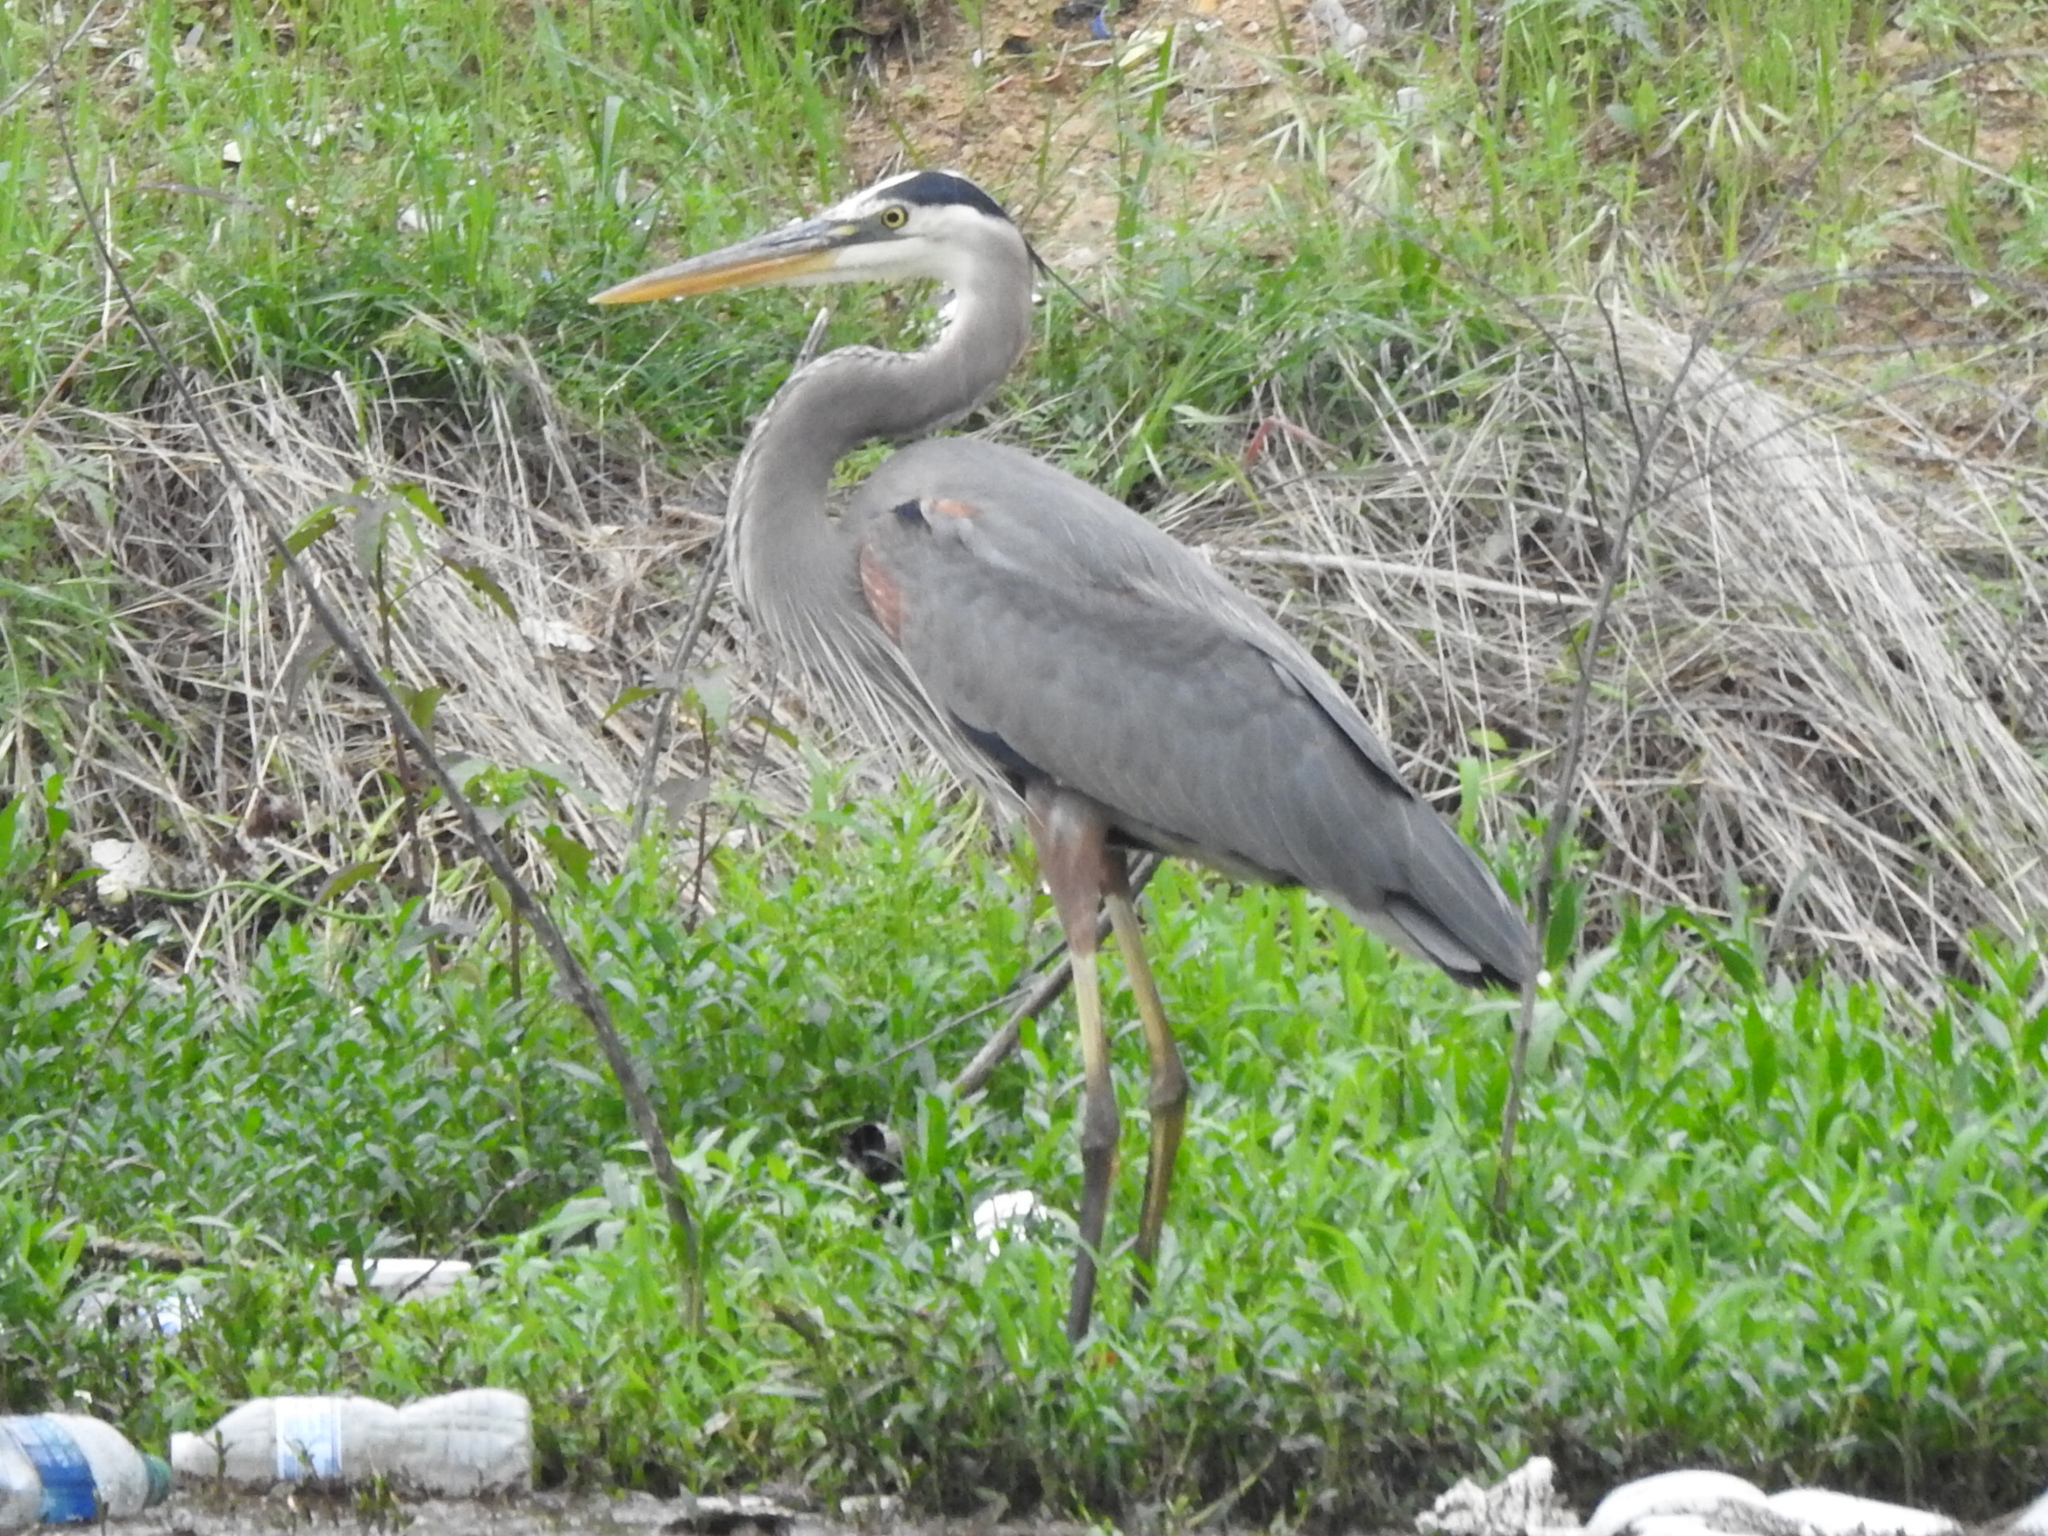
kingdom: Animalia
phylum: Chordata
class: Aves
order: Pelecaniformes
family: Ardeidae
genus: Ardea
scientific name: Ardea herodias
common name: Great blue heron
